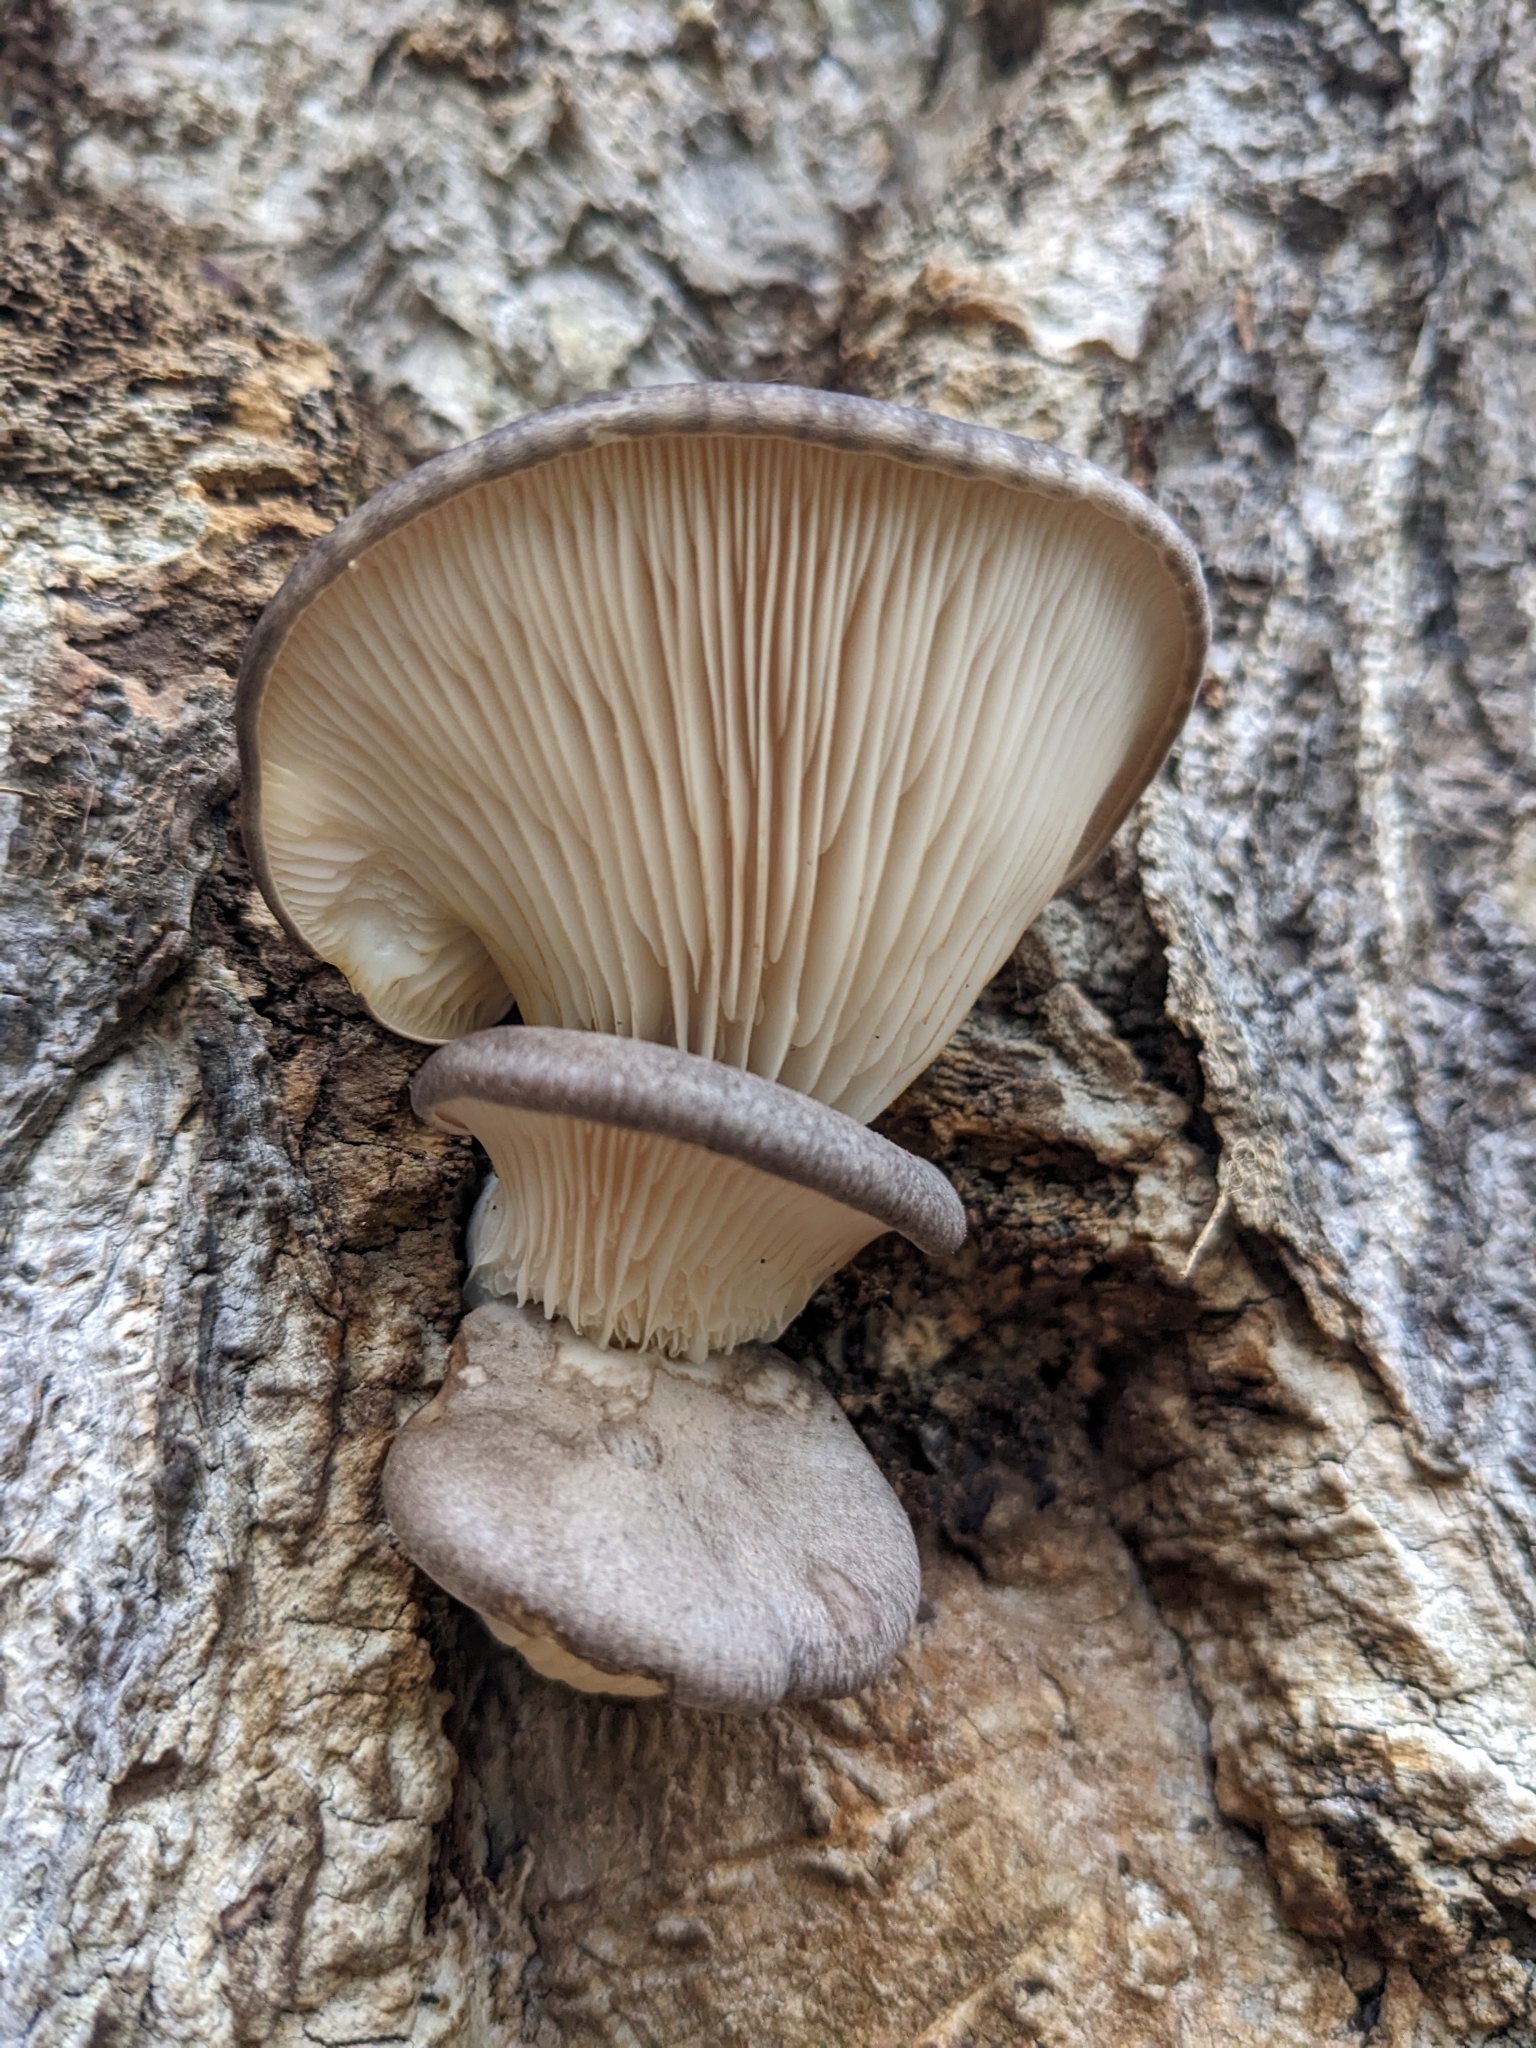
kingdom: Fungi
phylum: Basidiomycota
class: Agaricomycetes
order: Agaricales
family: Pleurotaceae
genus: Pleurotus
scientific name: Pleurotus ostreatus
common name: Oyster mushroom
